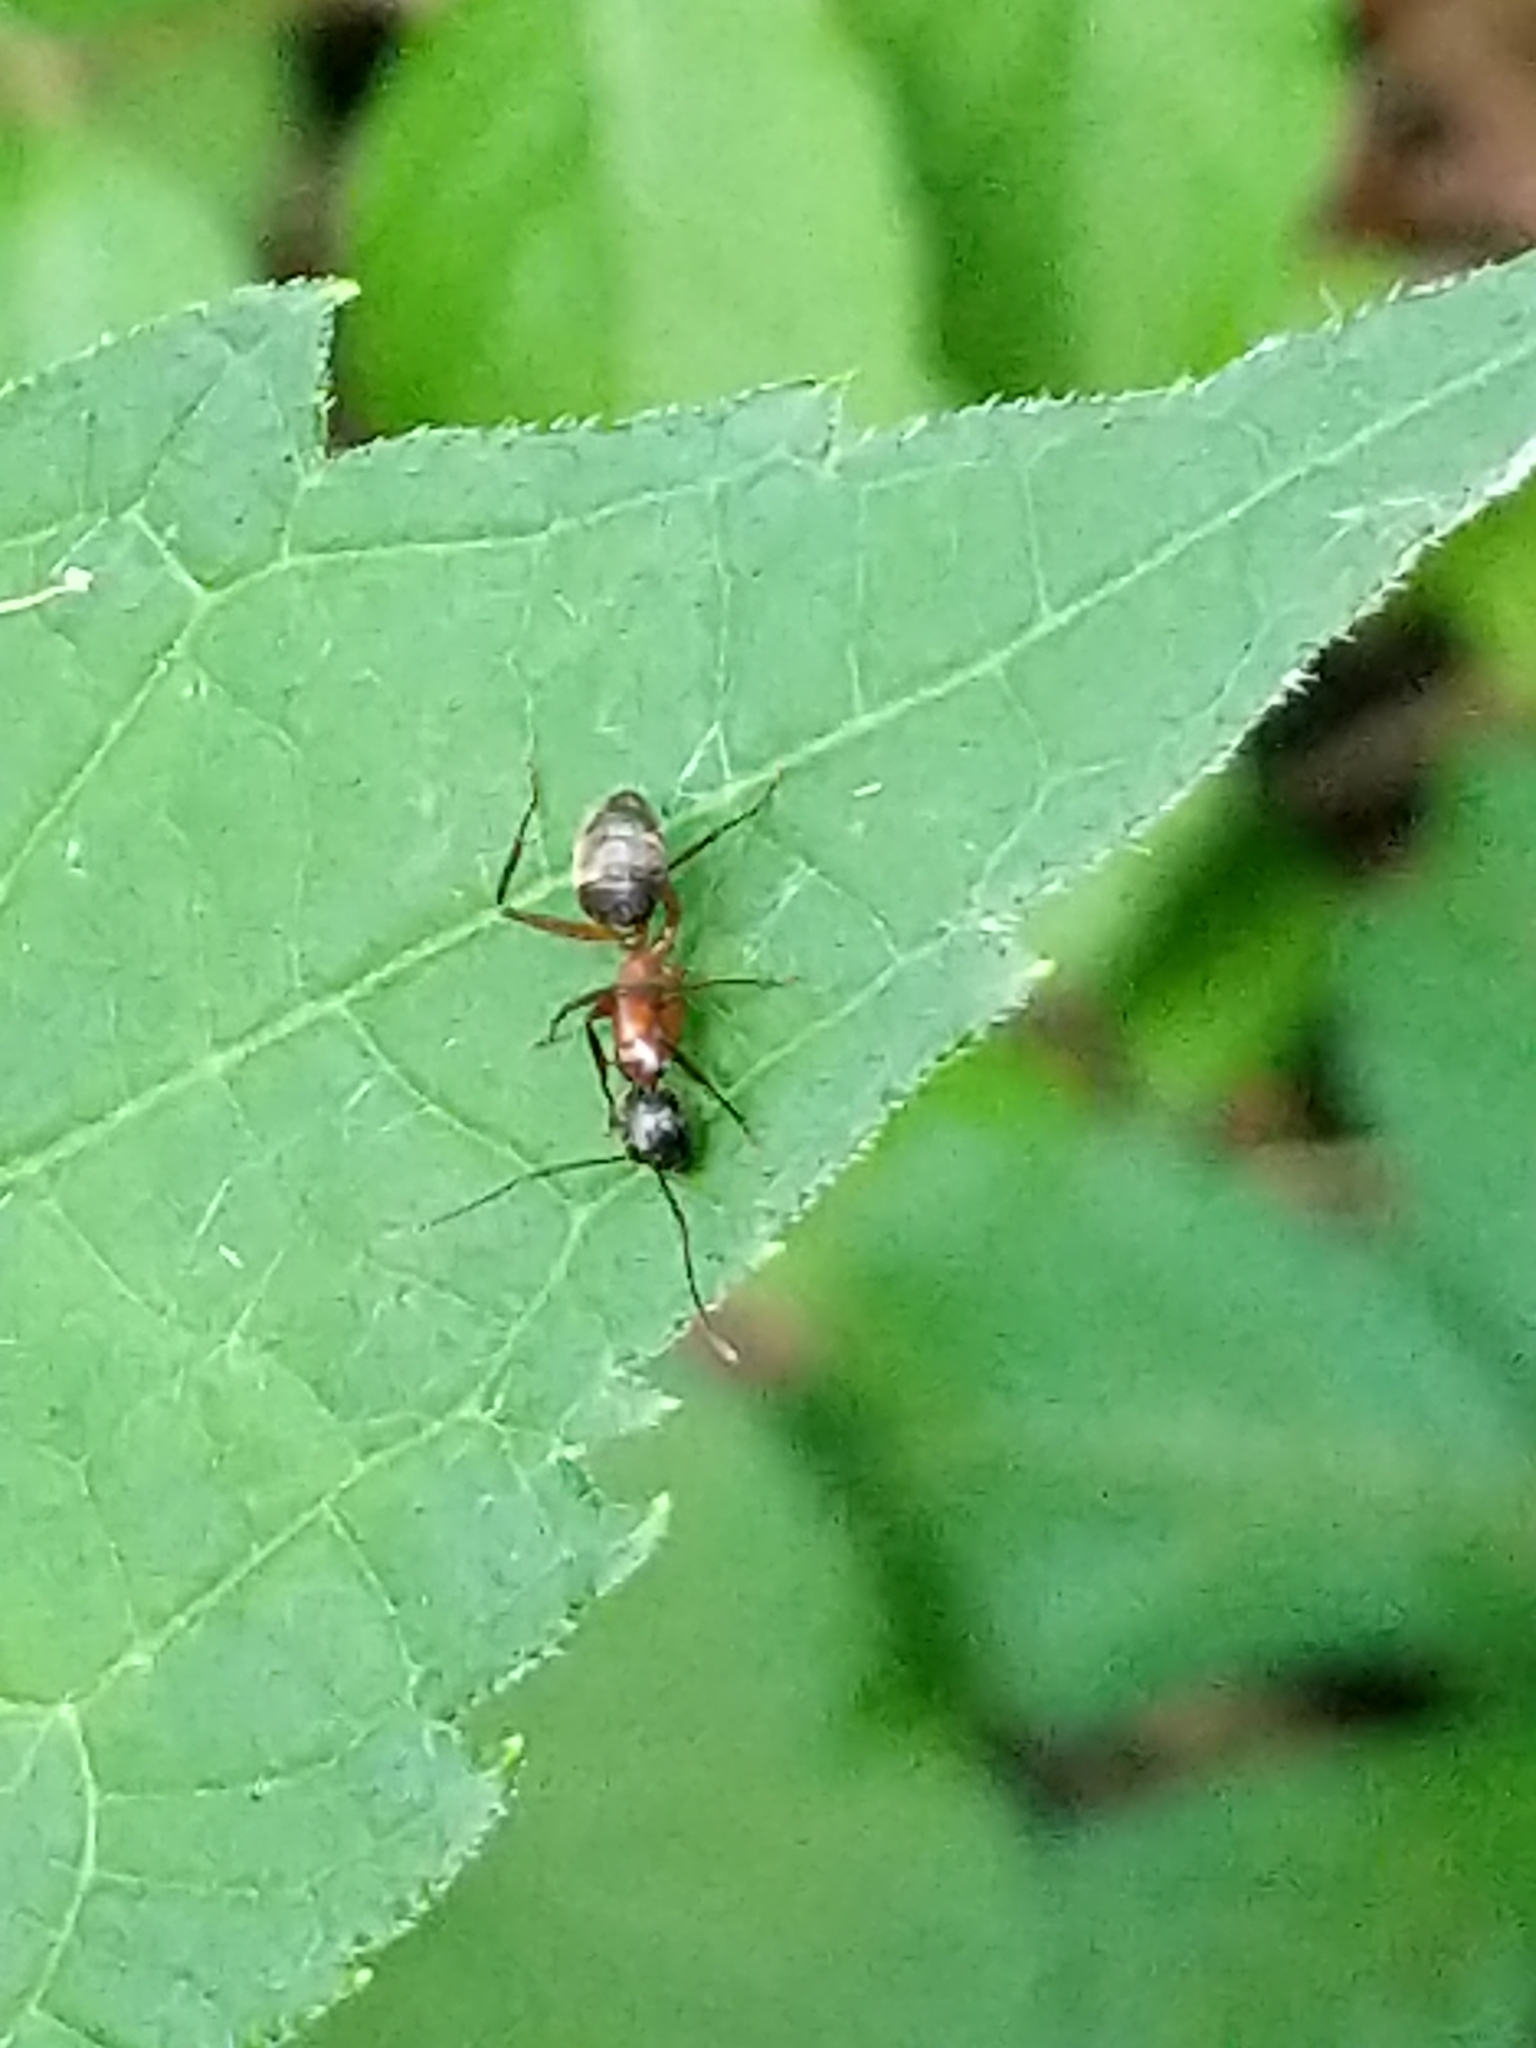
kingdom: Animalia
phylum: Arthropoda
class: Insecta
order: Hymenoptera
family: Formicidae
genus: Camponotus
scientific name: Camponotus chromaiodes
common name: Red carpenter ant
